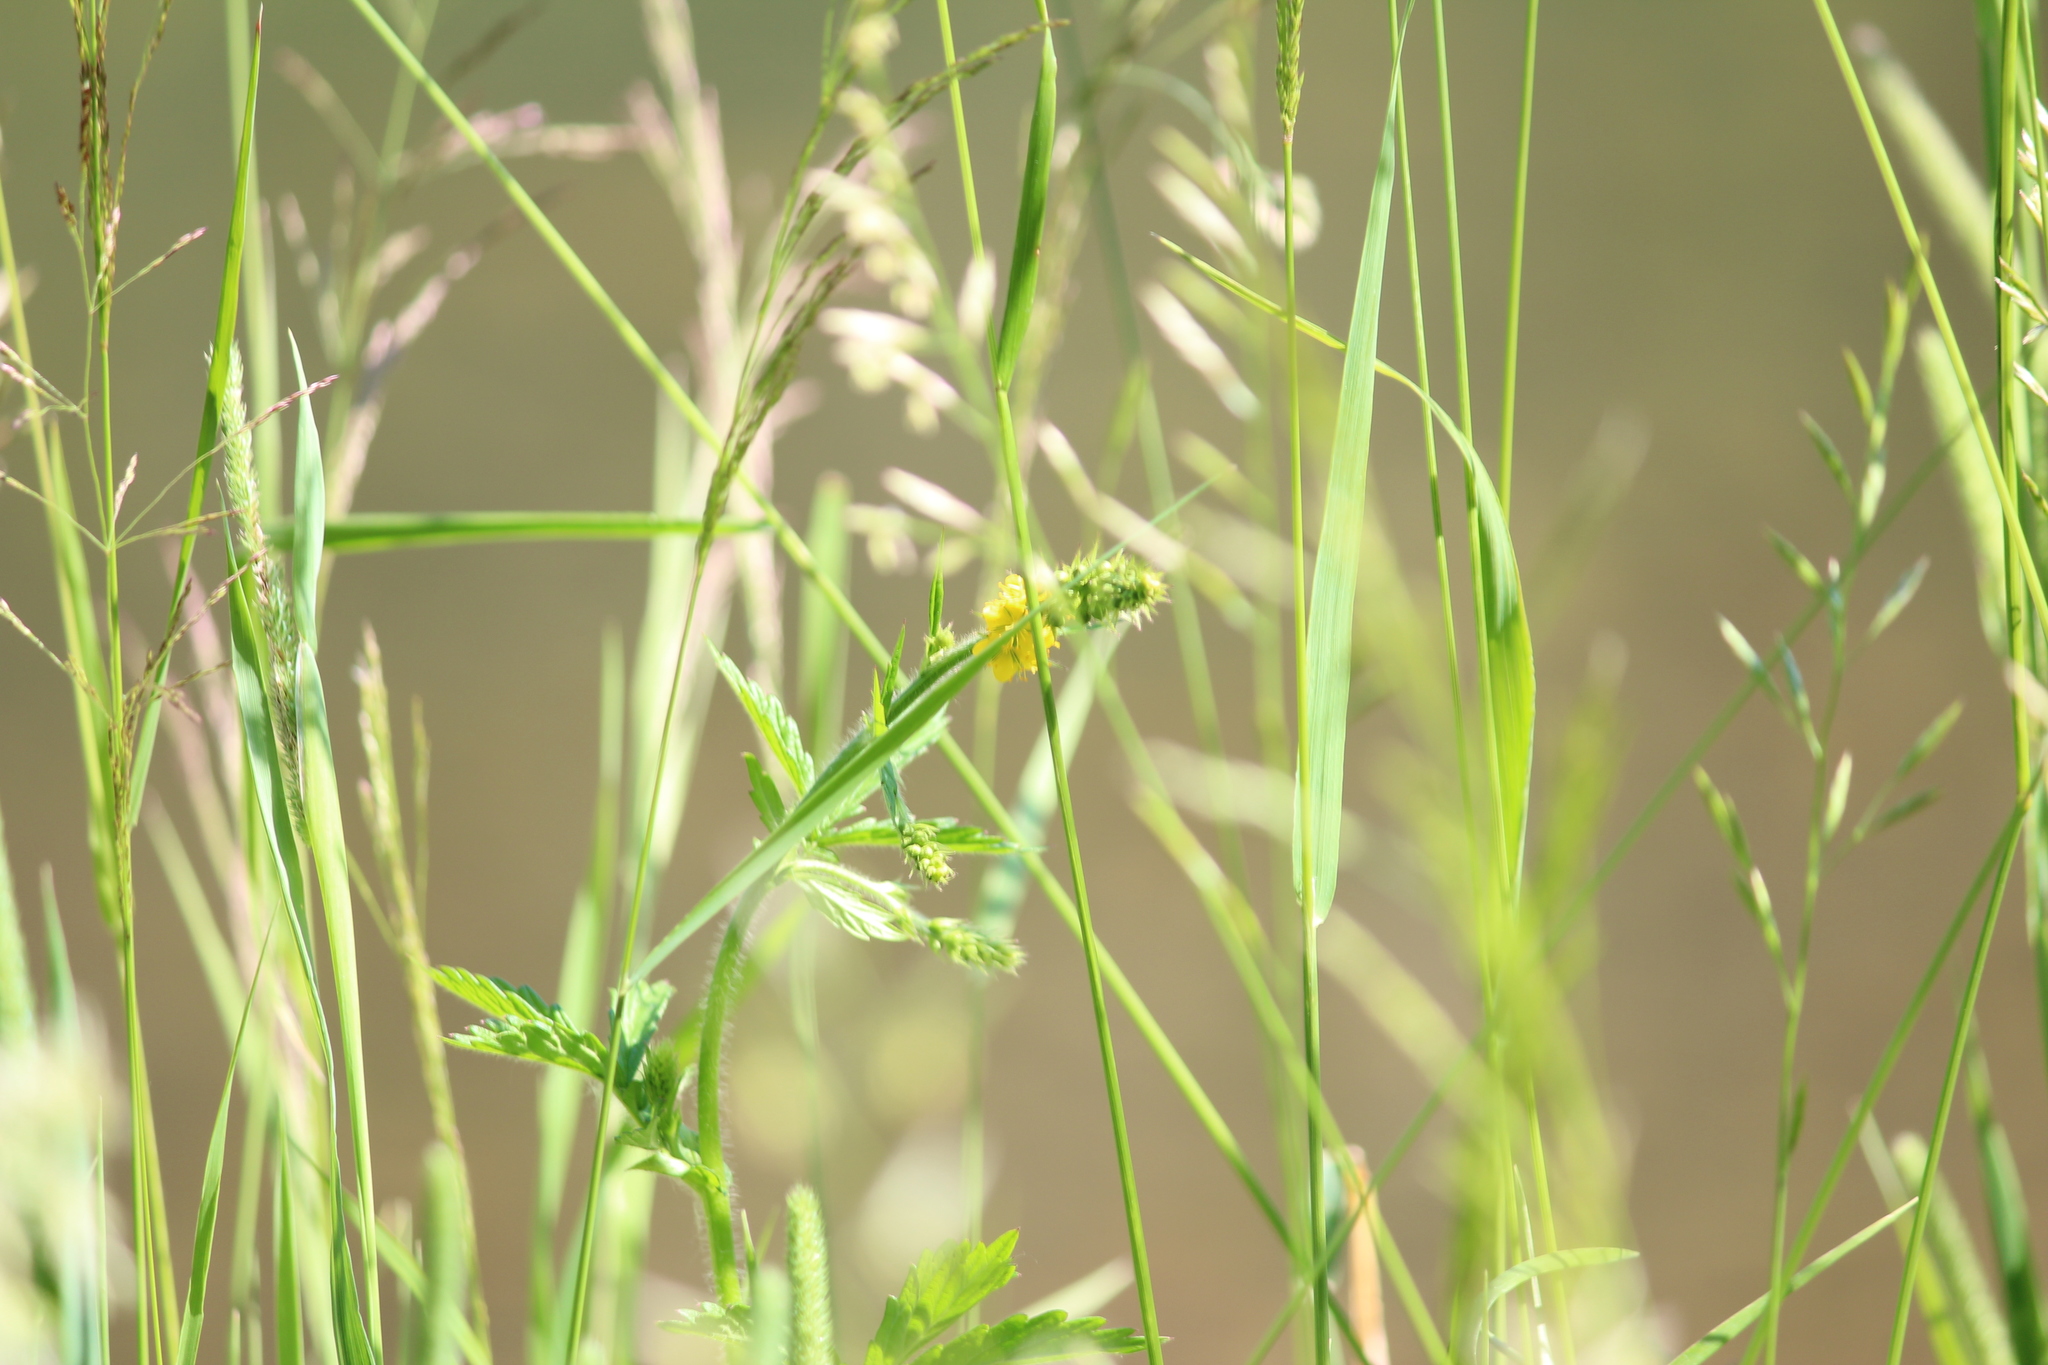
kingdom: Plantae
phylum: Tracheophyta
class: Magnoliopsida
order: Rosales
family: Rosaceae
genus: Agrimonia
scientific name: Agrimonia eupatoria
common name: Agrimony
